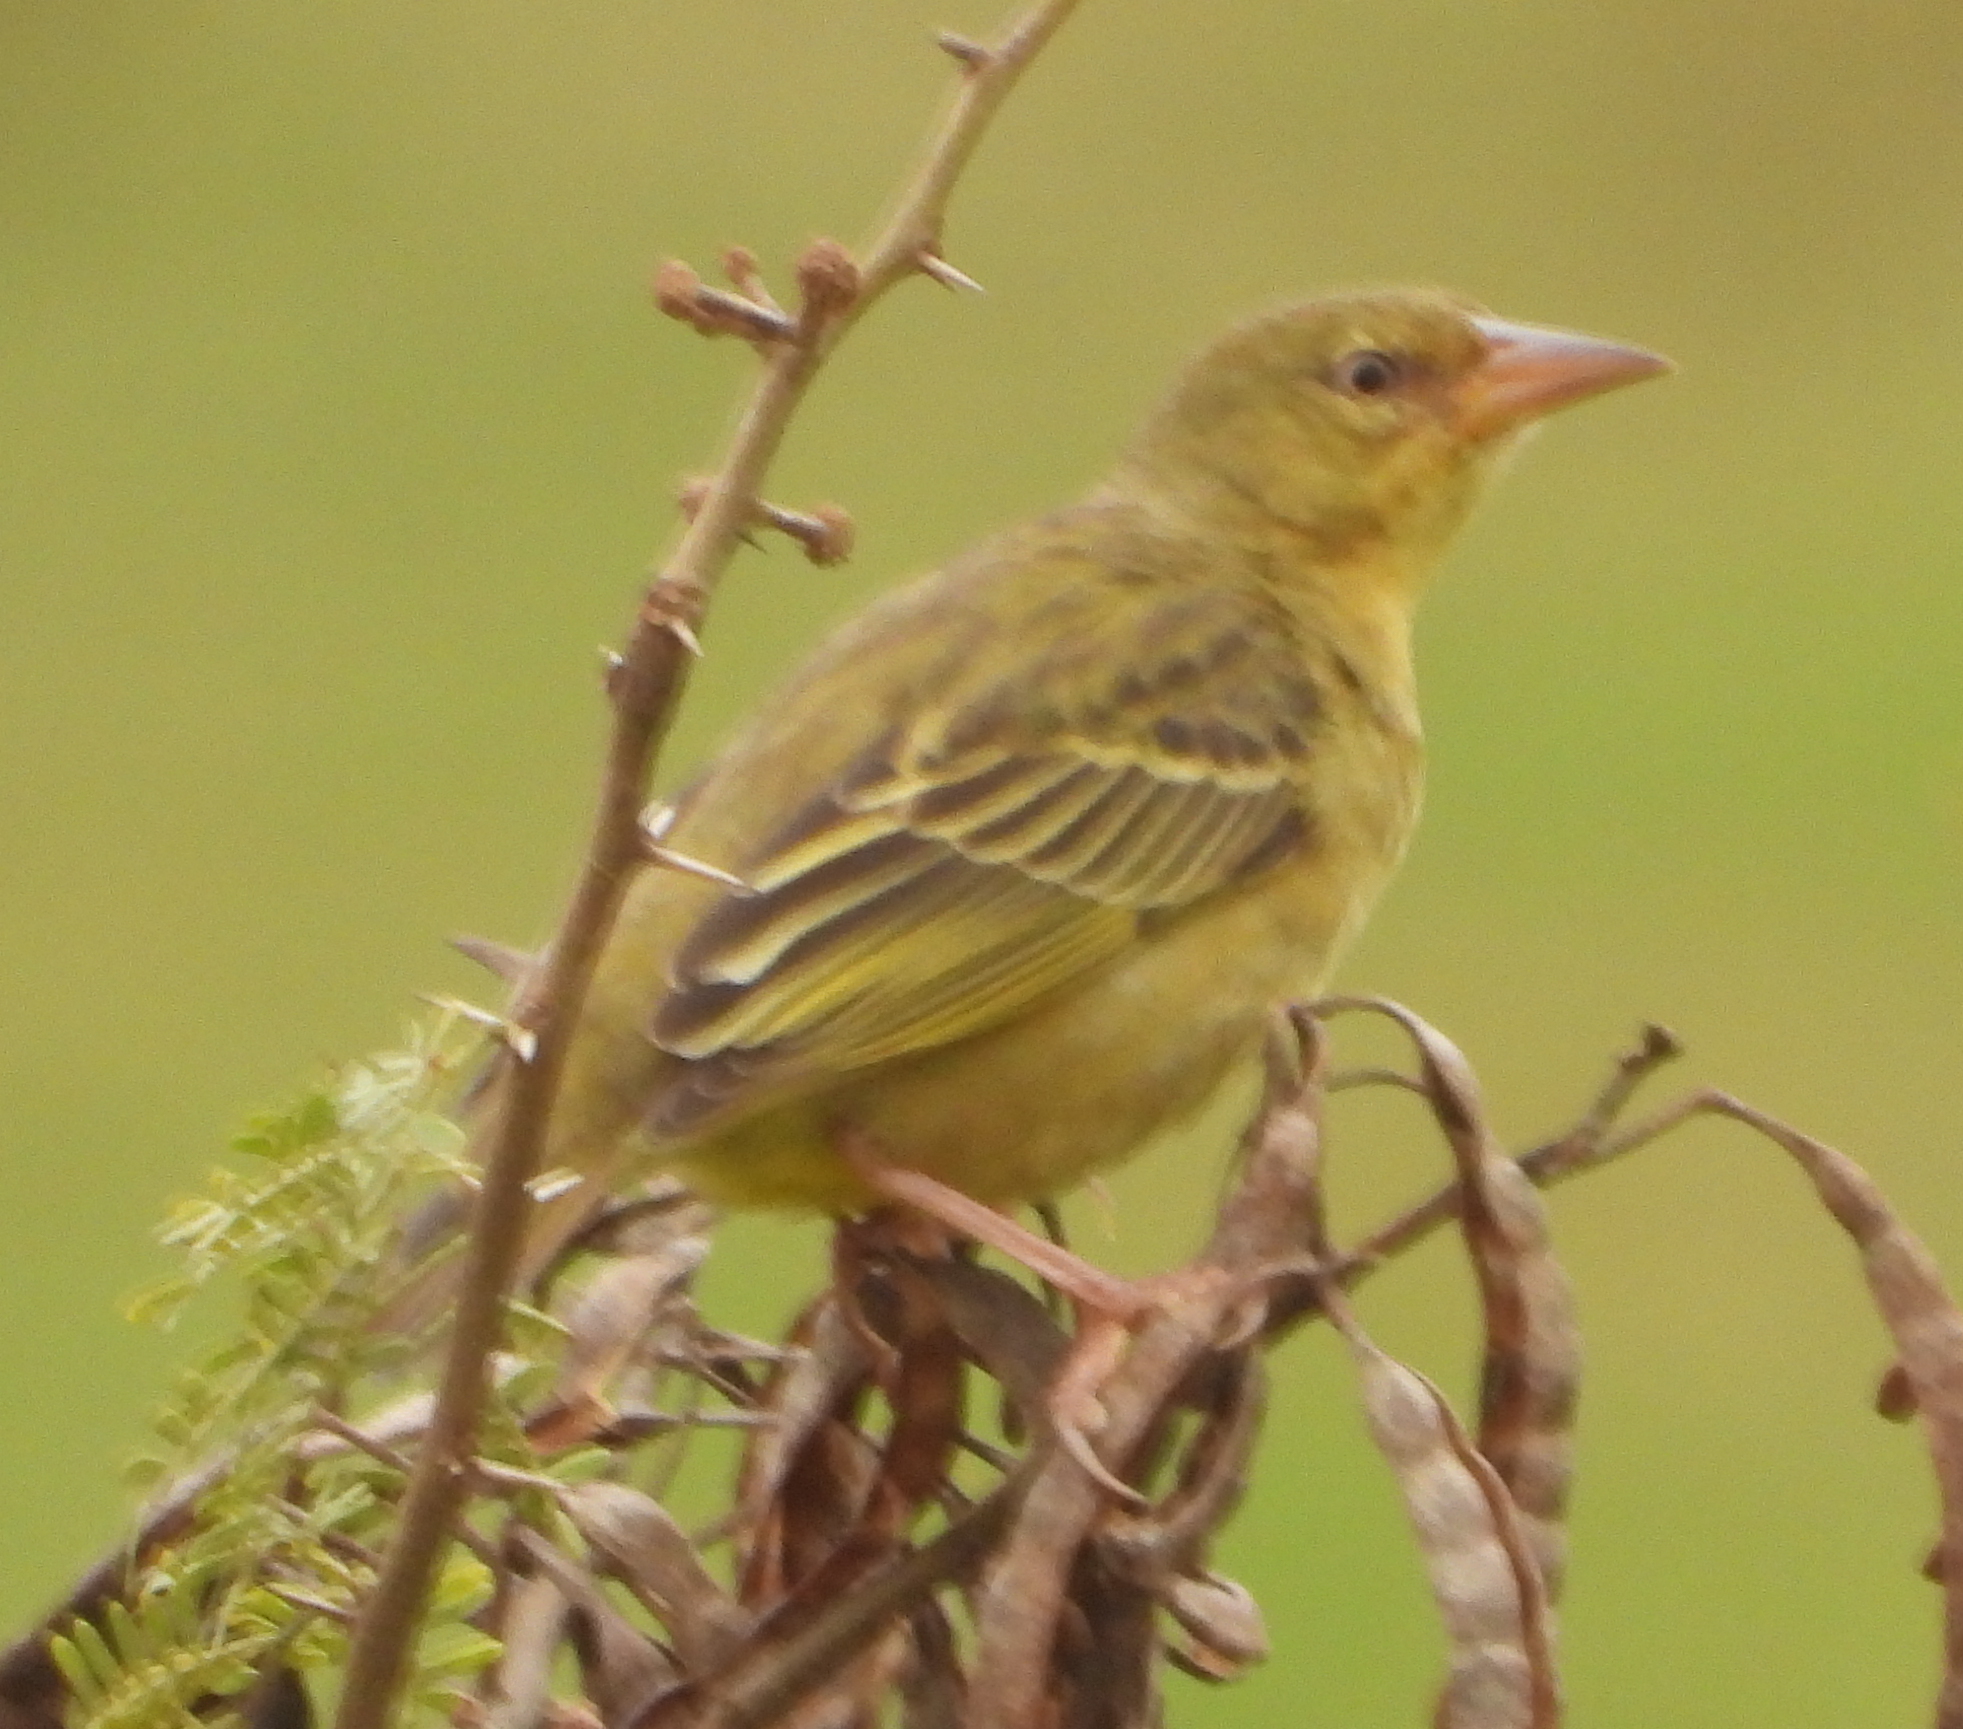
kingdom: Animalia
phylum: Chordata
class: Aves
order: Passeriformes
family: Ploceidae
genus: Ploceus
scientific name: Ploceus capensis
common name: Cape weaver
